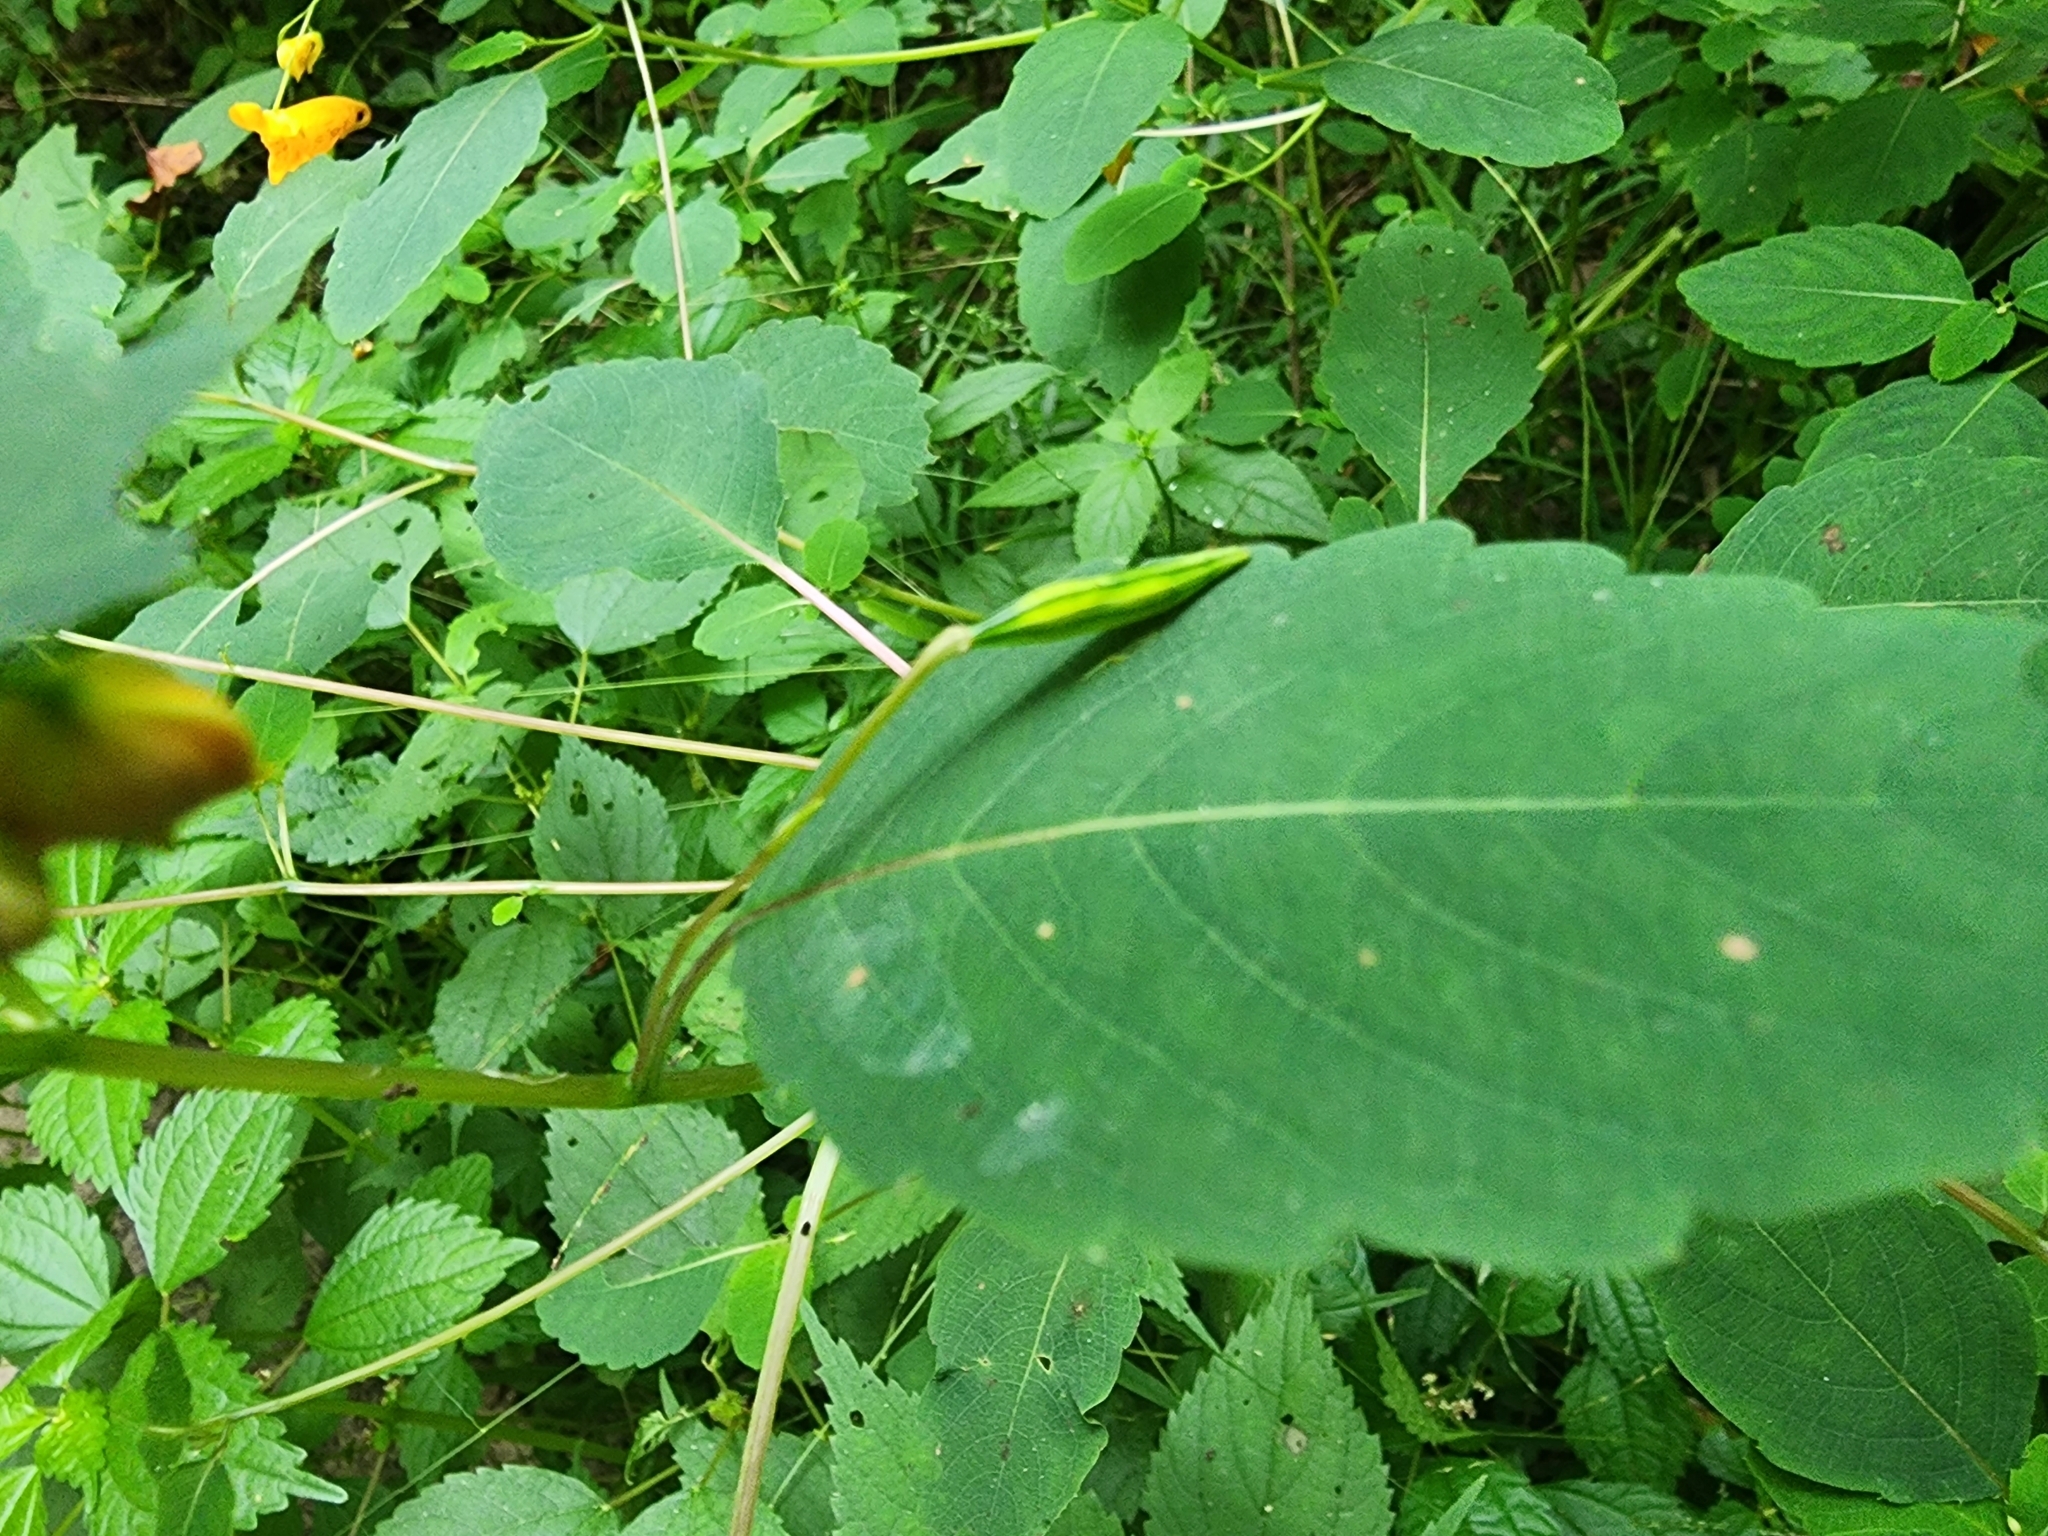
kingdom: Plantae
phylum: Tracheophyta
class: Magnoliopsida
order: Ericales
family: Balsaminaceae
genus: Impatiens
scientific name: Impatiens capensis
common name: Orange balsam
